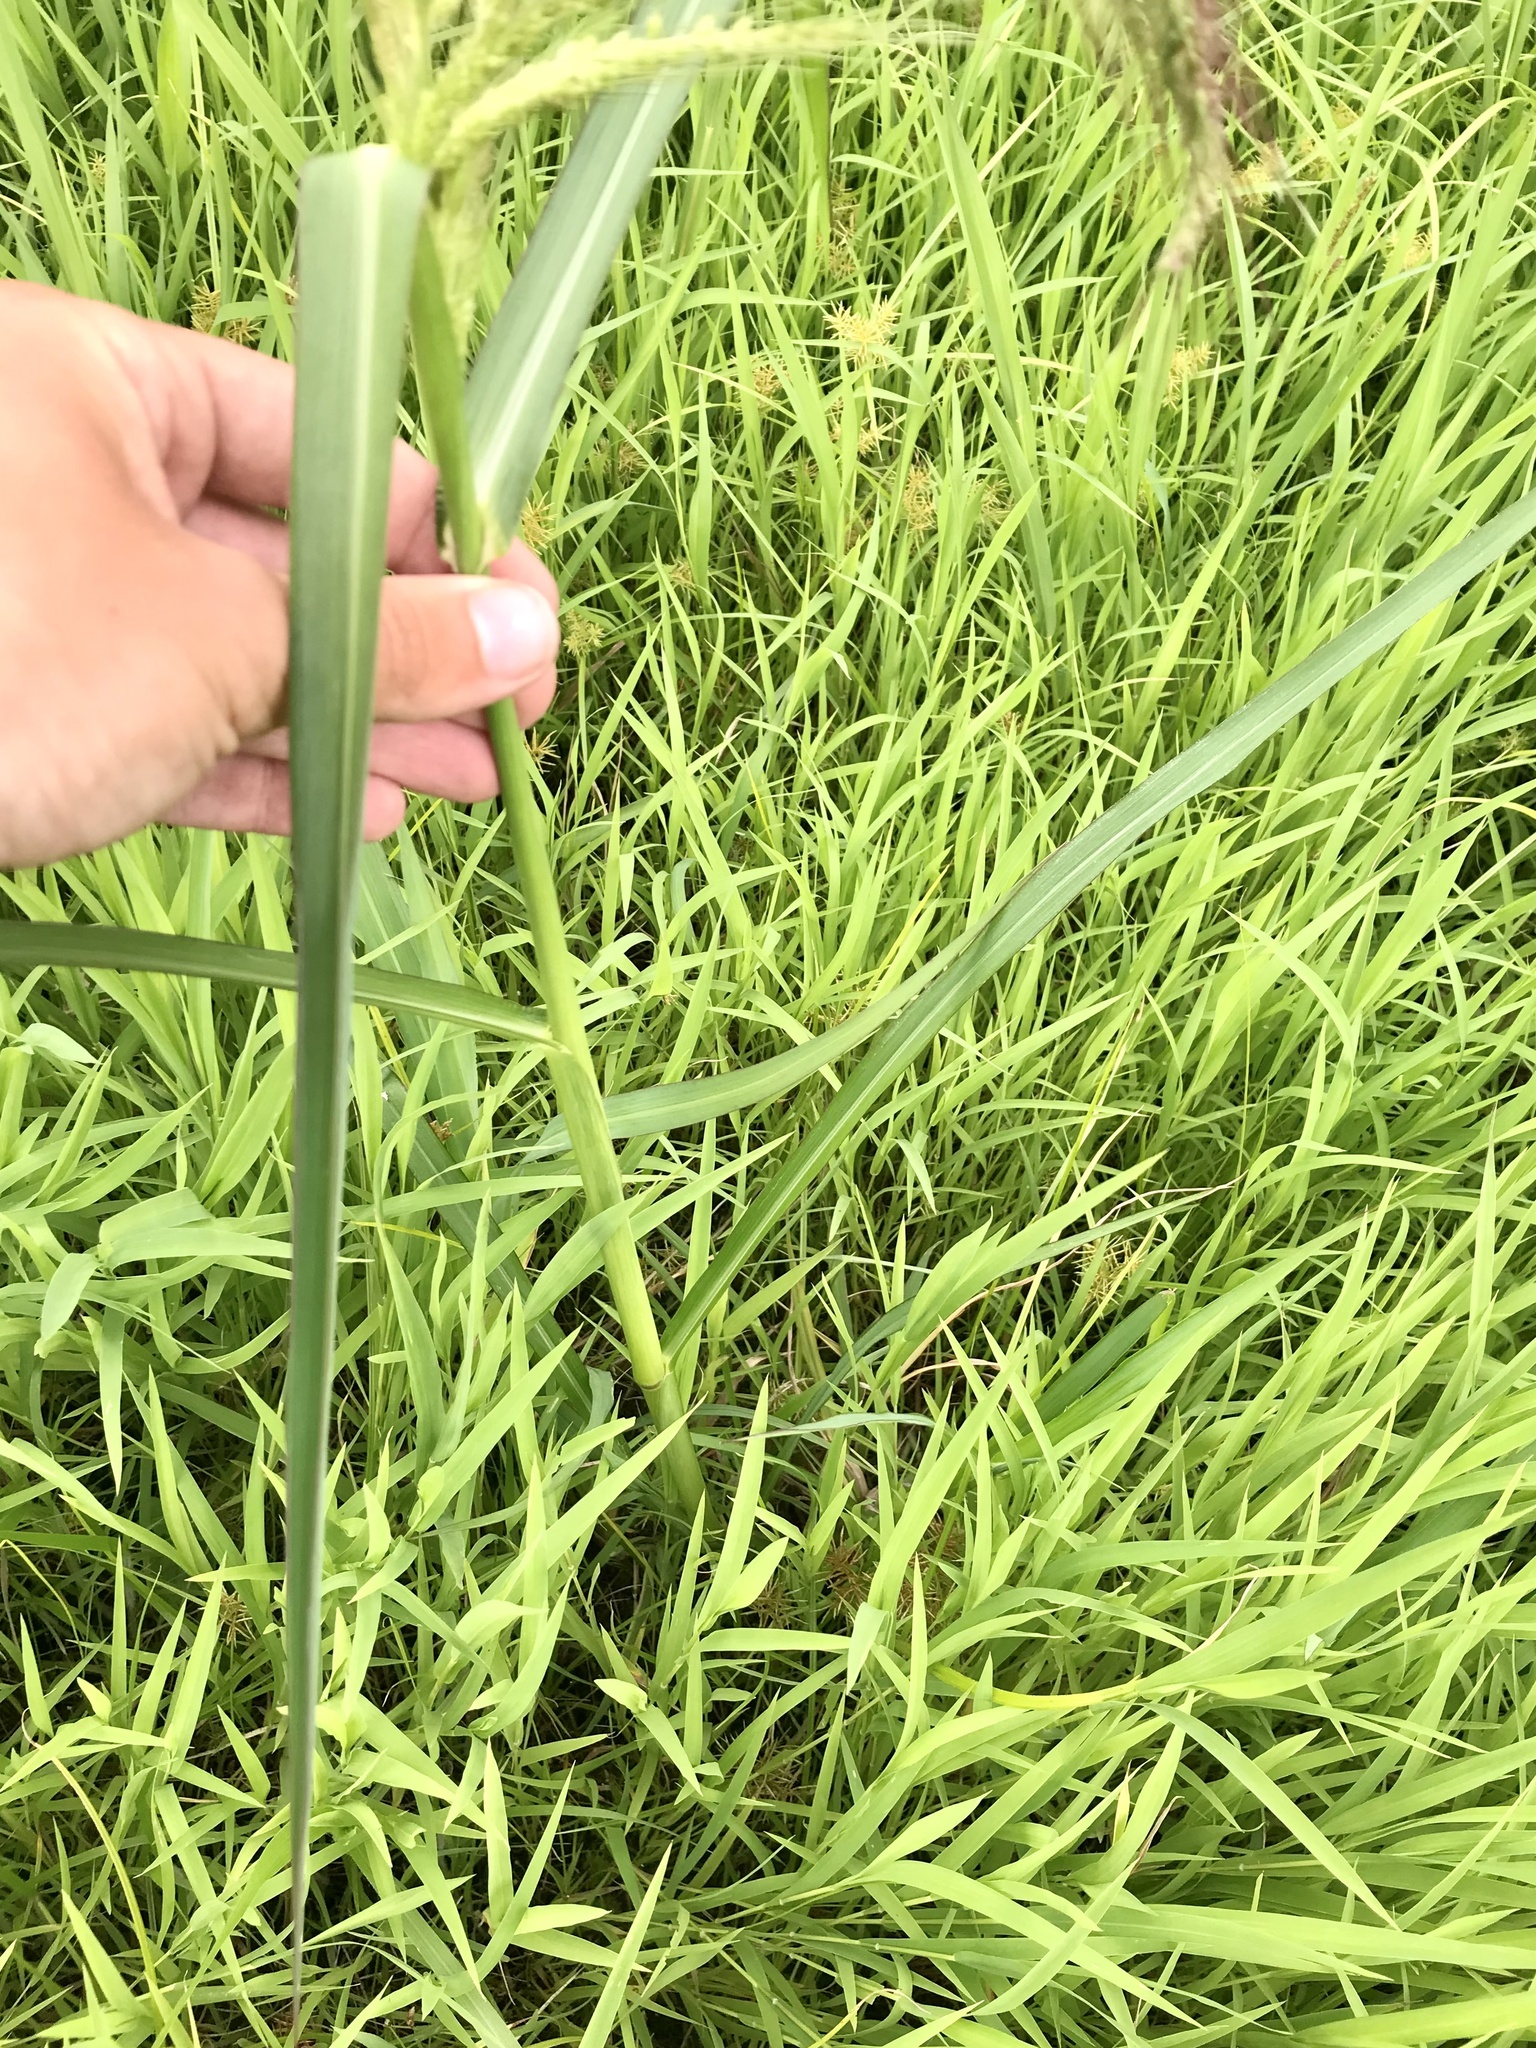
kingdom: Plantae
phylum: Tracheophyta
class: Liliopsida
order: Poales
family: Poaceae
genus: Echinochloa
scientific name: Echinochloa walteri
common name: Coast barnyard grass
